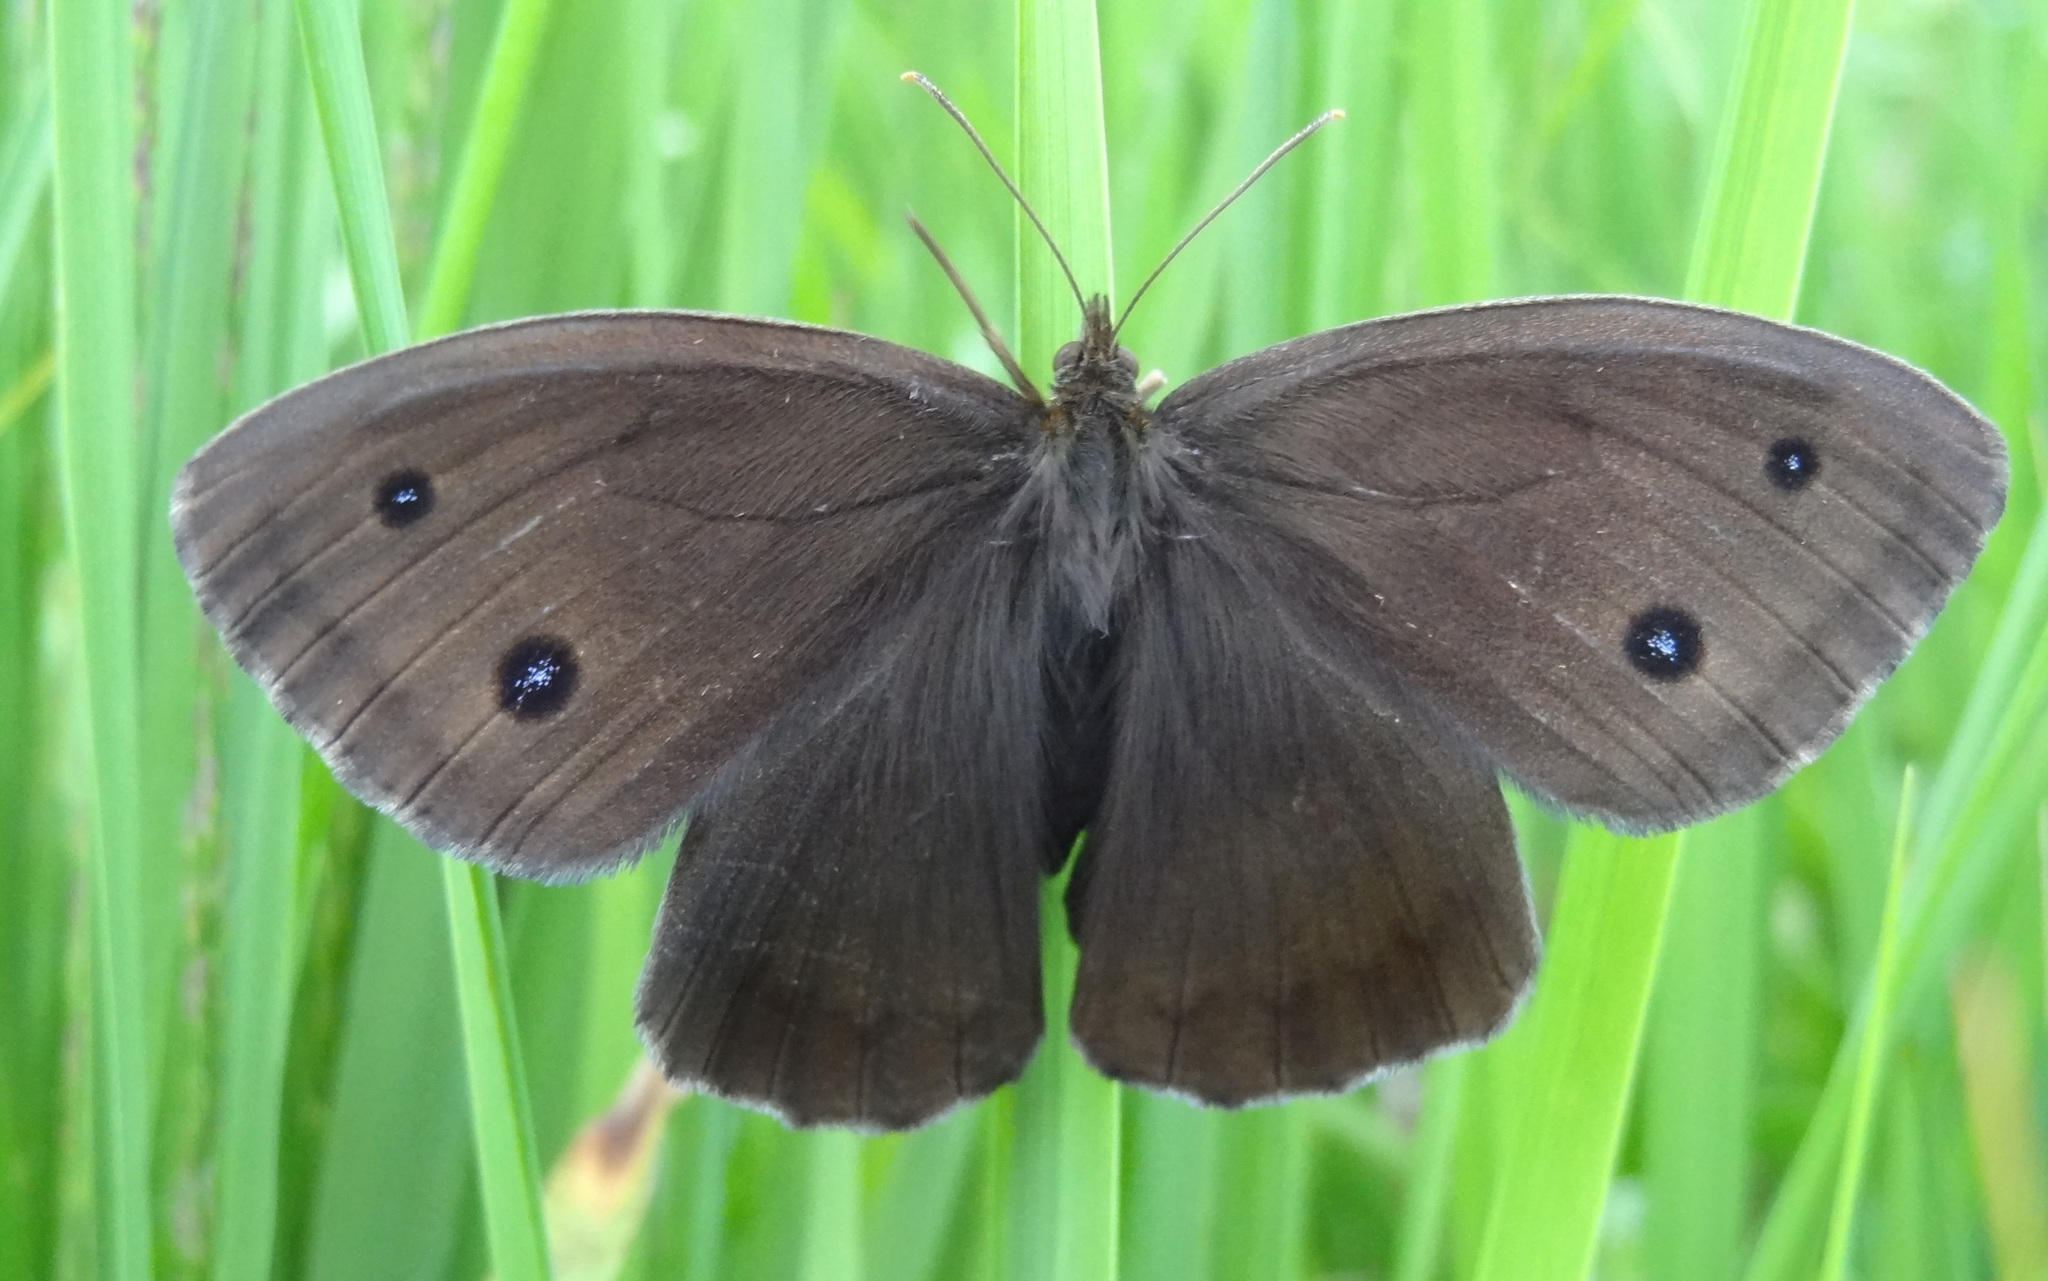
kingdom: Animalia
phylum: Arthropoda
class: Insecta
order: Lepidoptera
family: Nymphalidae
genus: Minois
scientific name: Minois dryas
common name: Dryad
